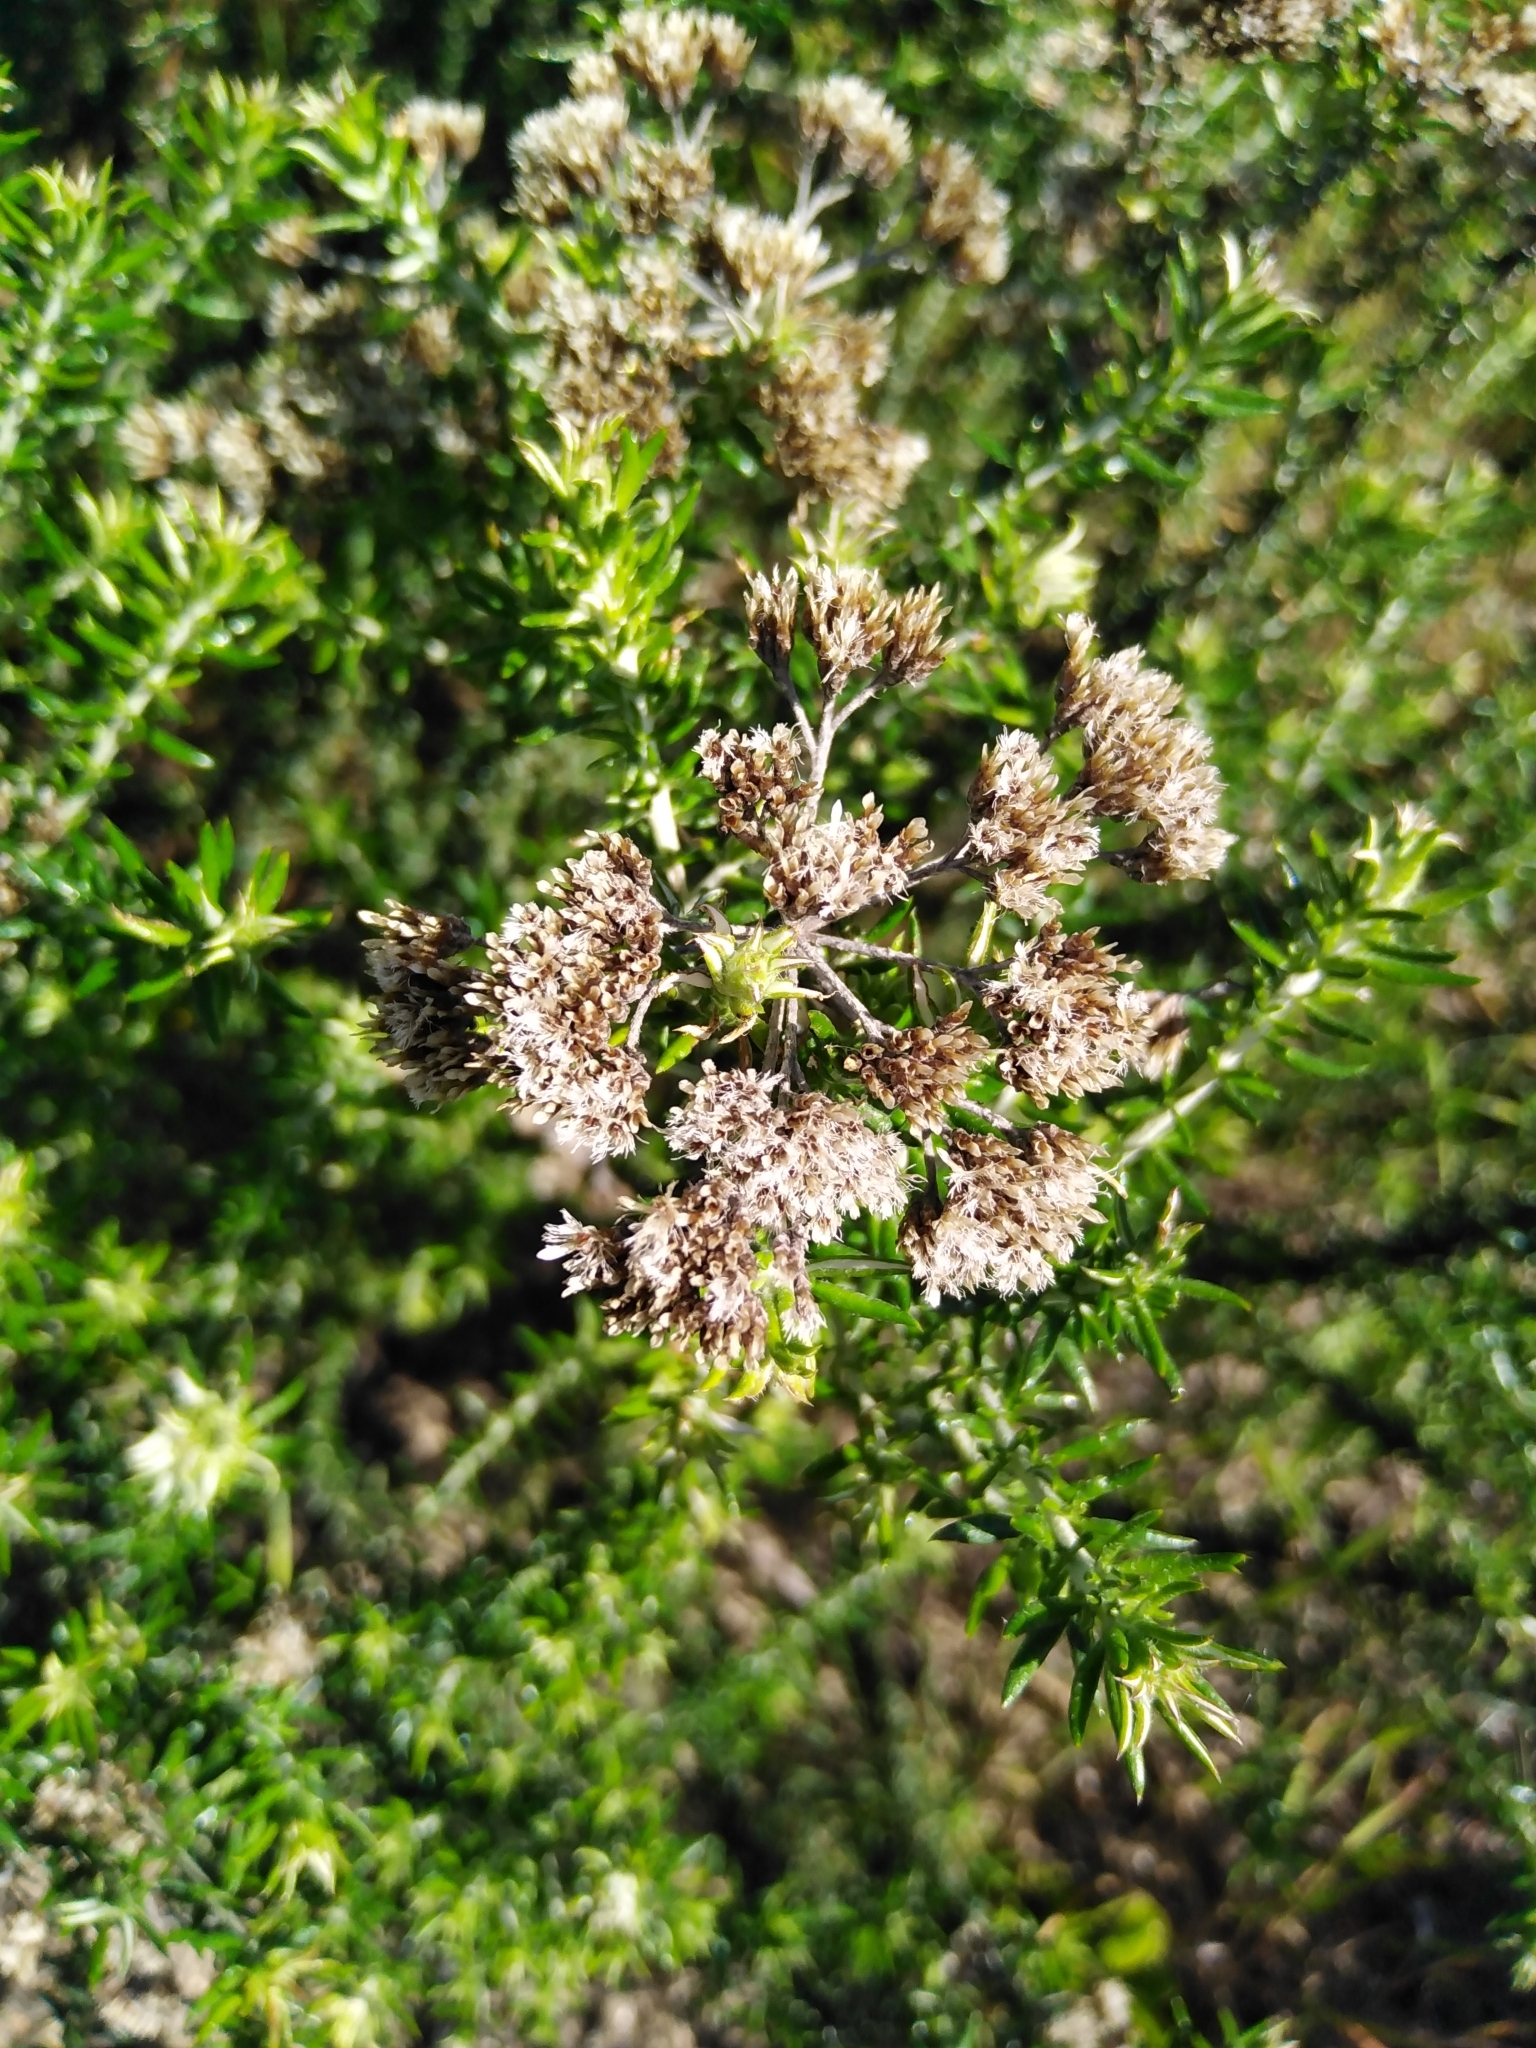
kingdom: Plantae
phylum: Tracheophyta
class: Magnoliopsida
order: Asterales
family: Asteraceae
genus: Metalasia
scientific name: Metalasia densa
